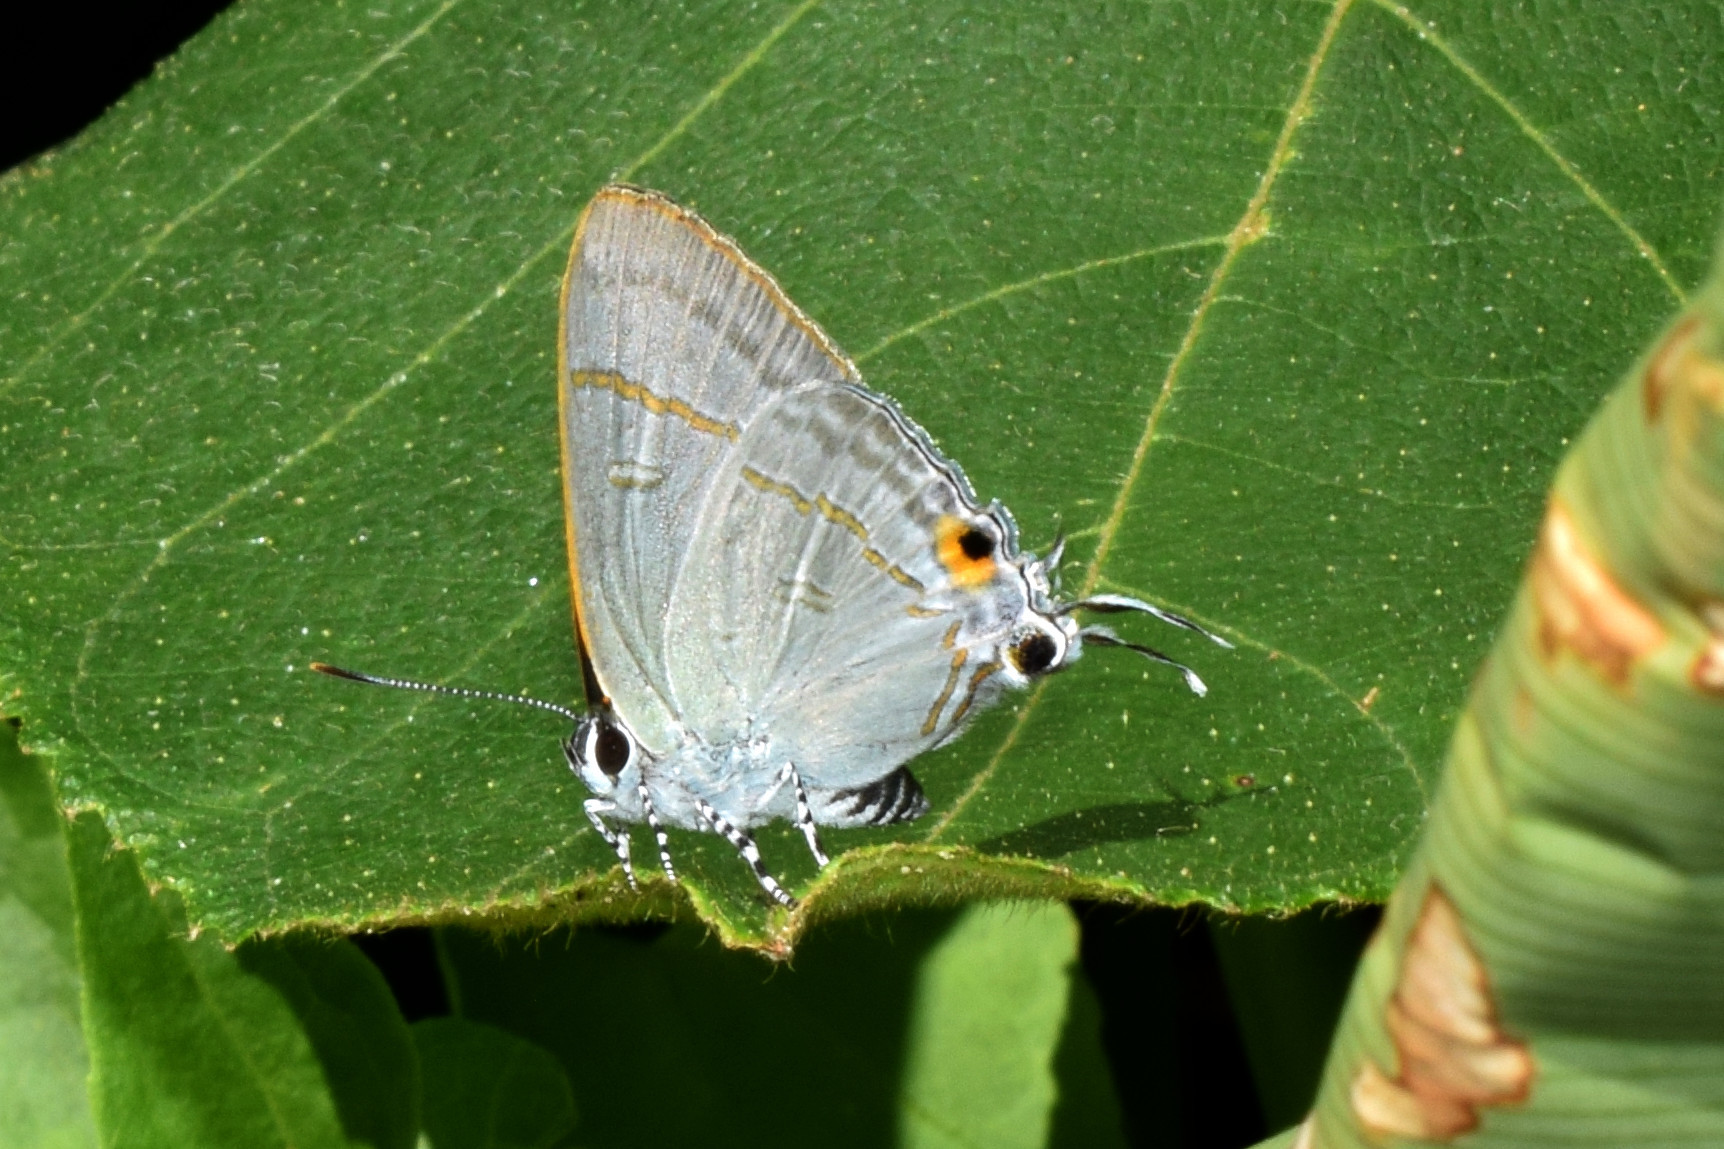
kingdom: Animalia
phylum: Arthropoda
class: Insecta
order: Lepidoptera
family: Lycaenidae
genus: Hypolycaena
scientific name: Hypolycaena erylus
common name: Common tit
